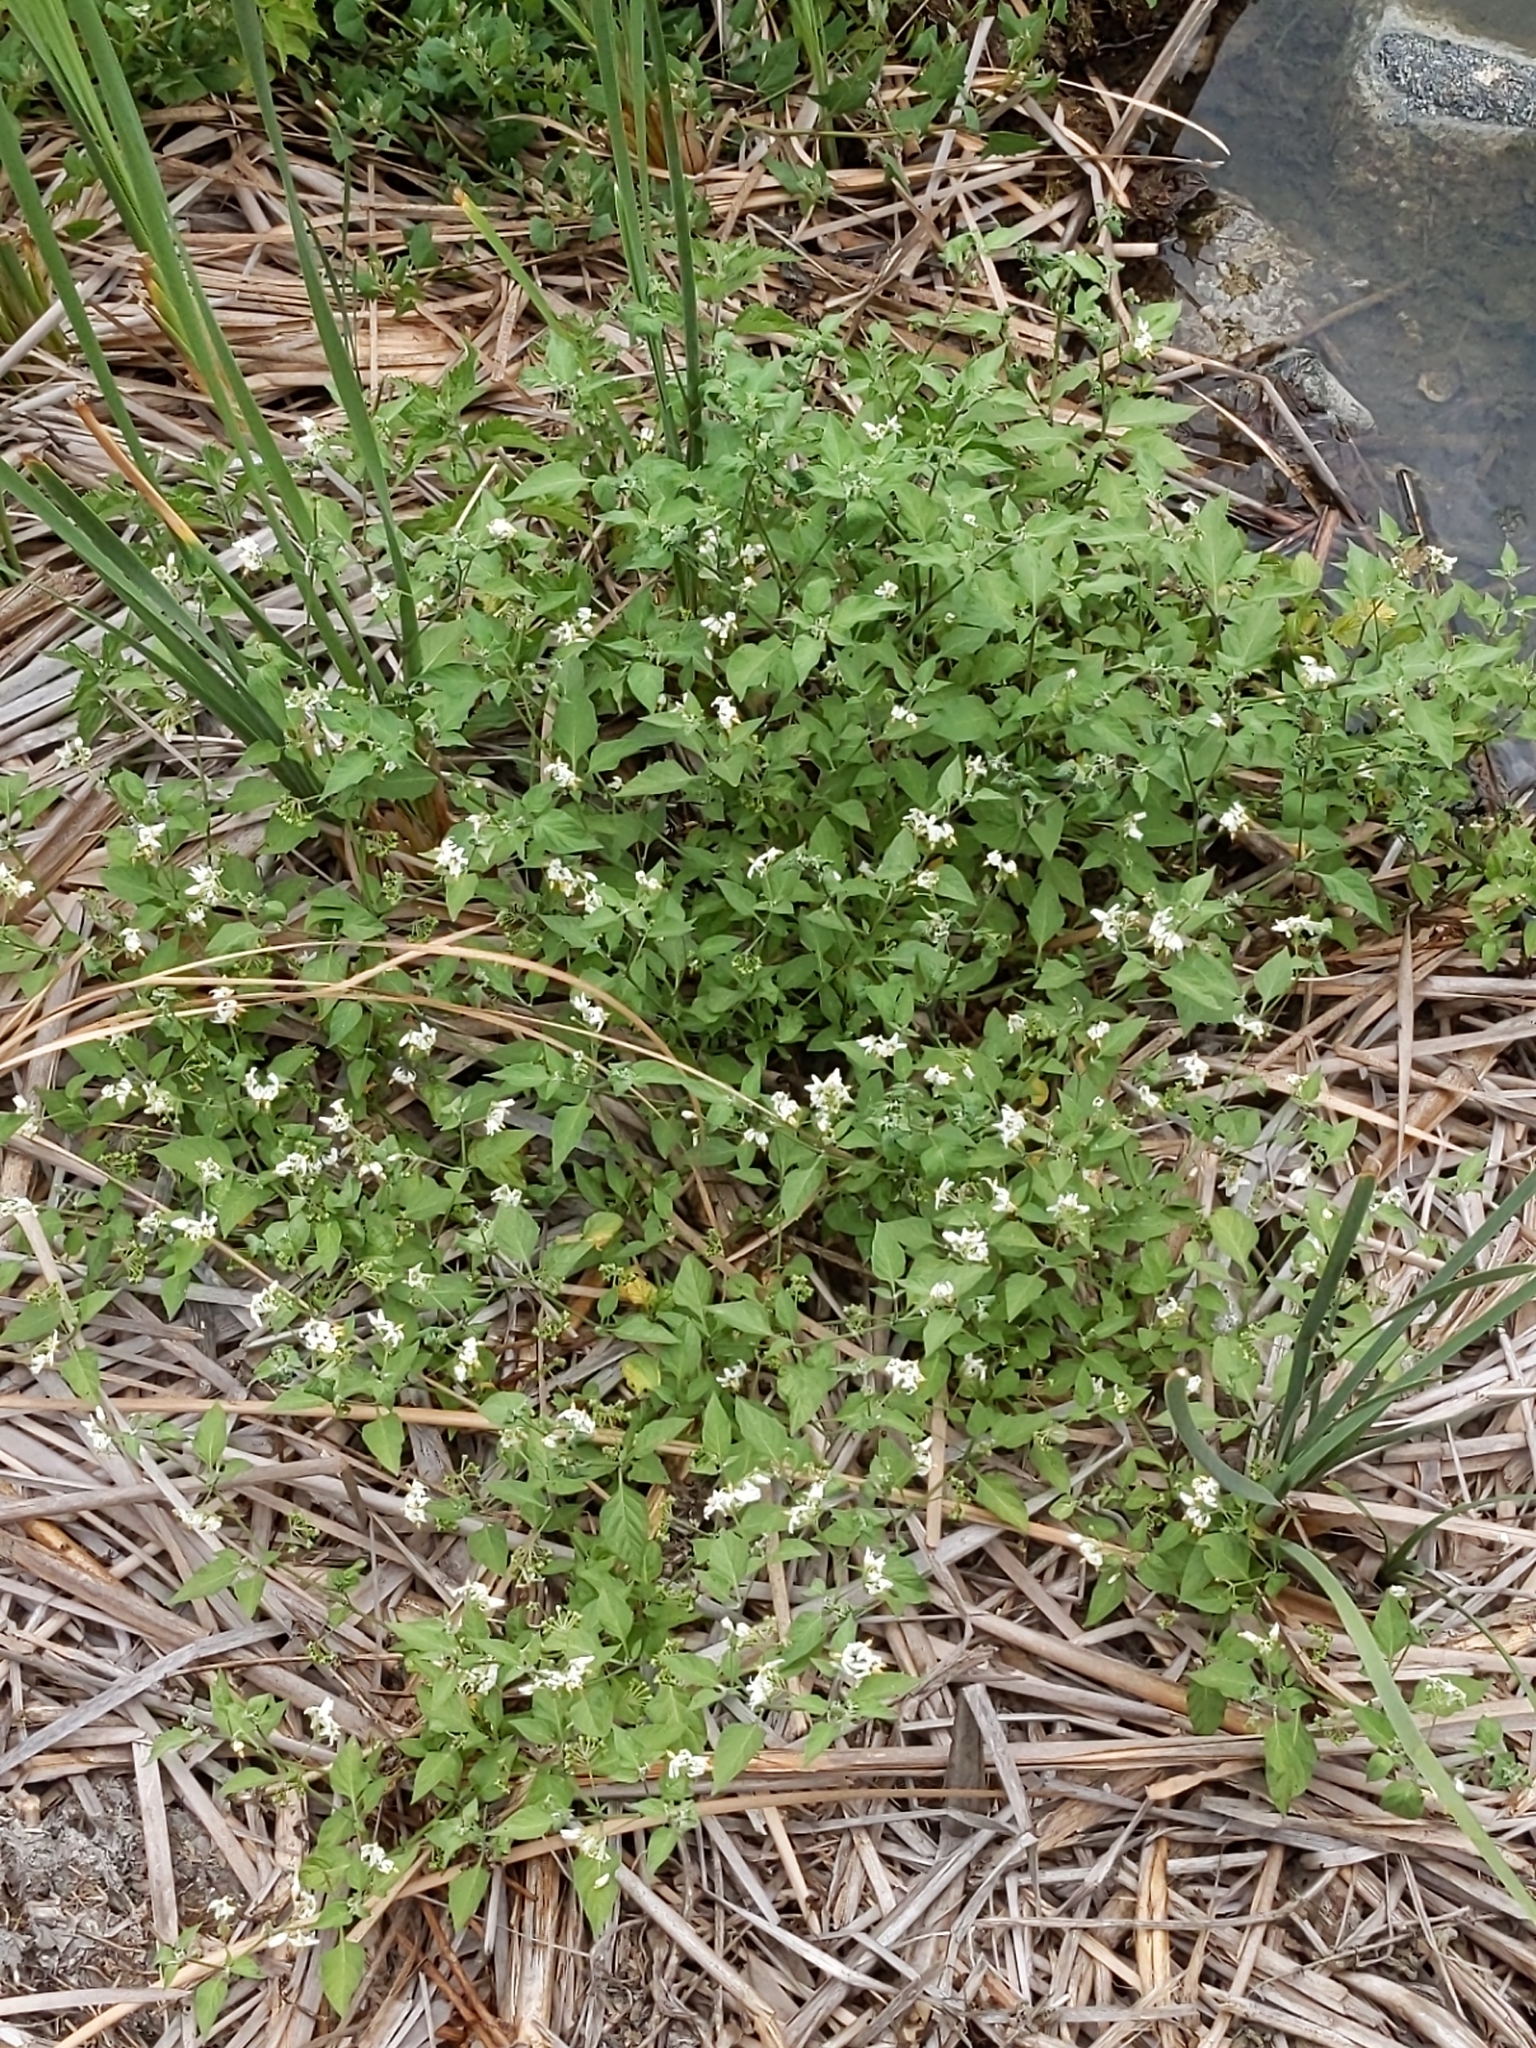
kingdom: Plantae
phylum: Tracheophyta
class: Magnoliopsida
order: Solanales
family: Solanaceae
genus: Solanum
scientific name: Solanum douglasii
